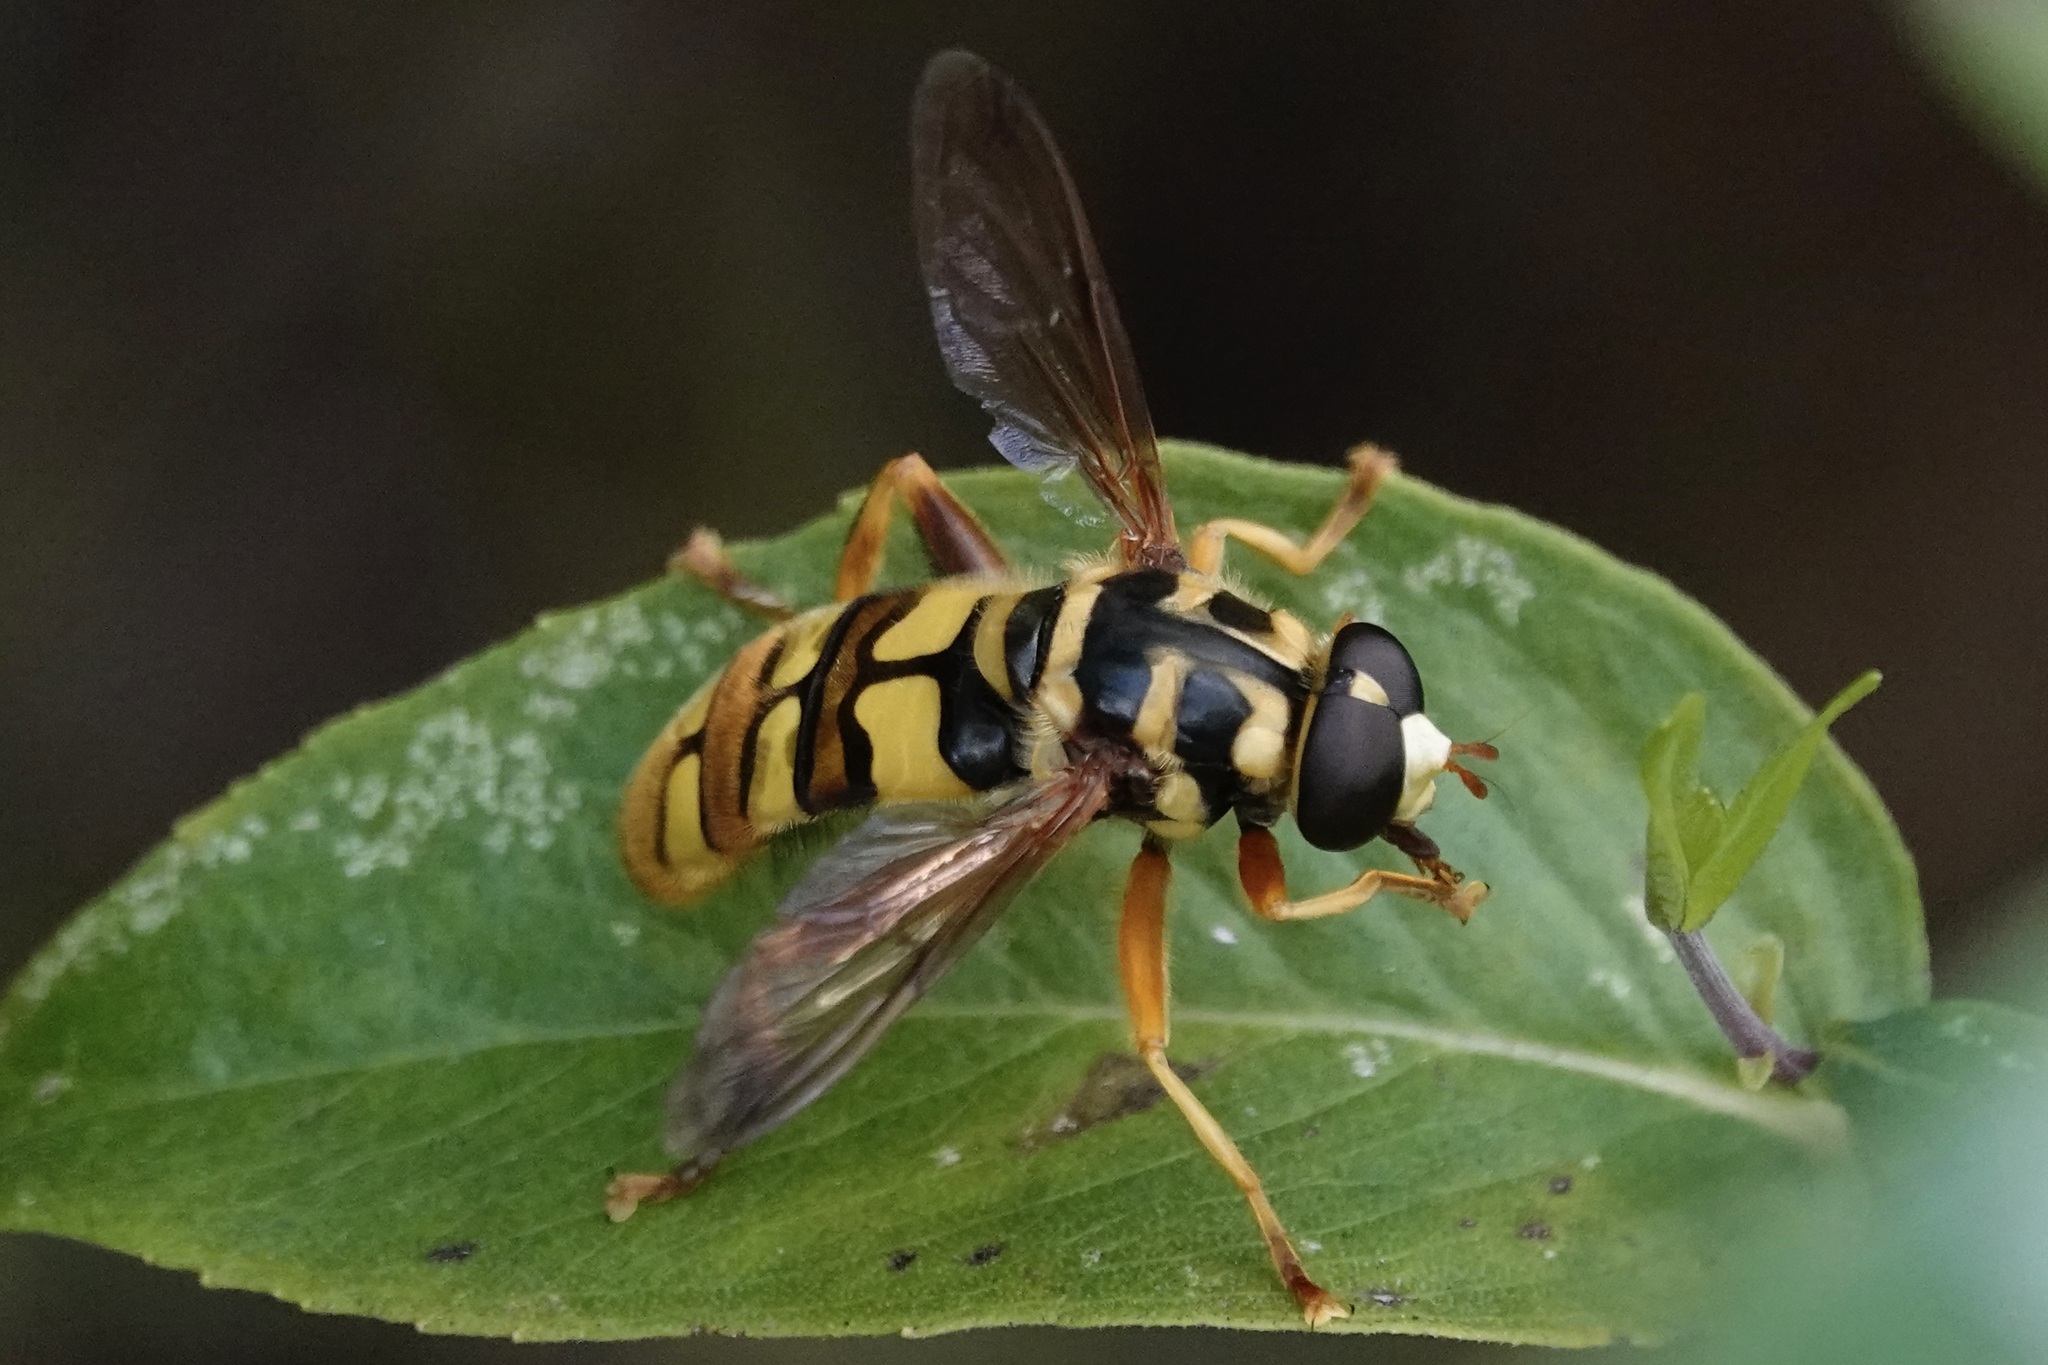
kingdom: Animalia
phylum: Arthropoda
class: Insecta
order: Diptera
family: Syrphidae
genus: Milesia
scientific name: Milesia virginiensis
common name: Virginia giant
